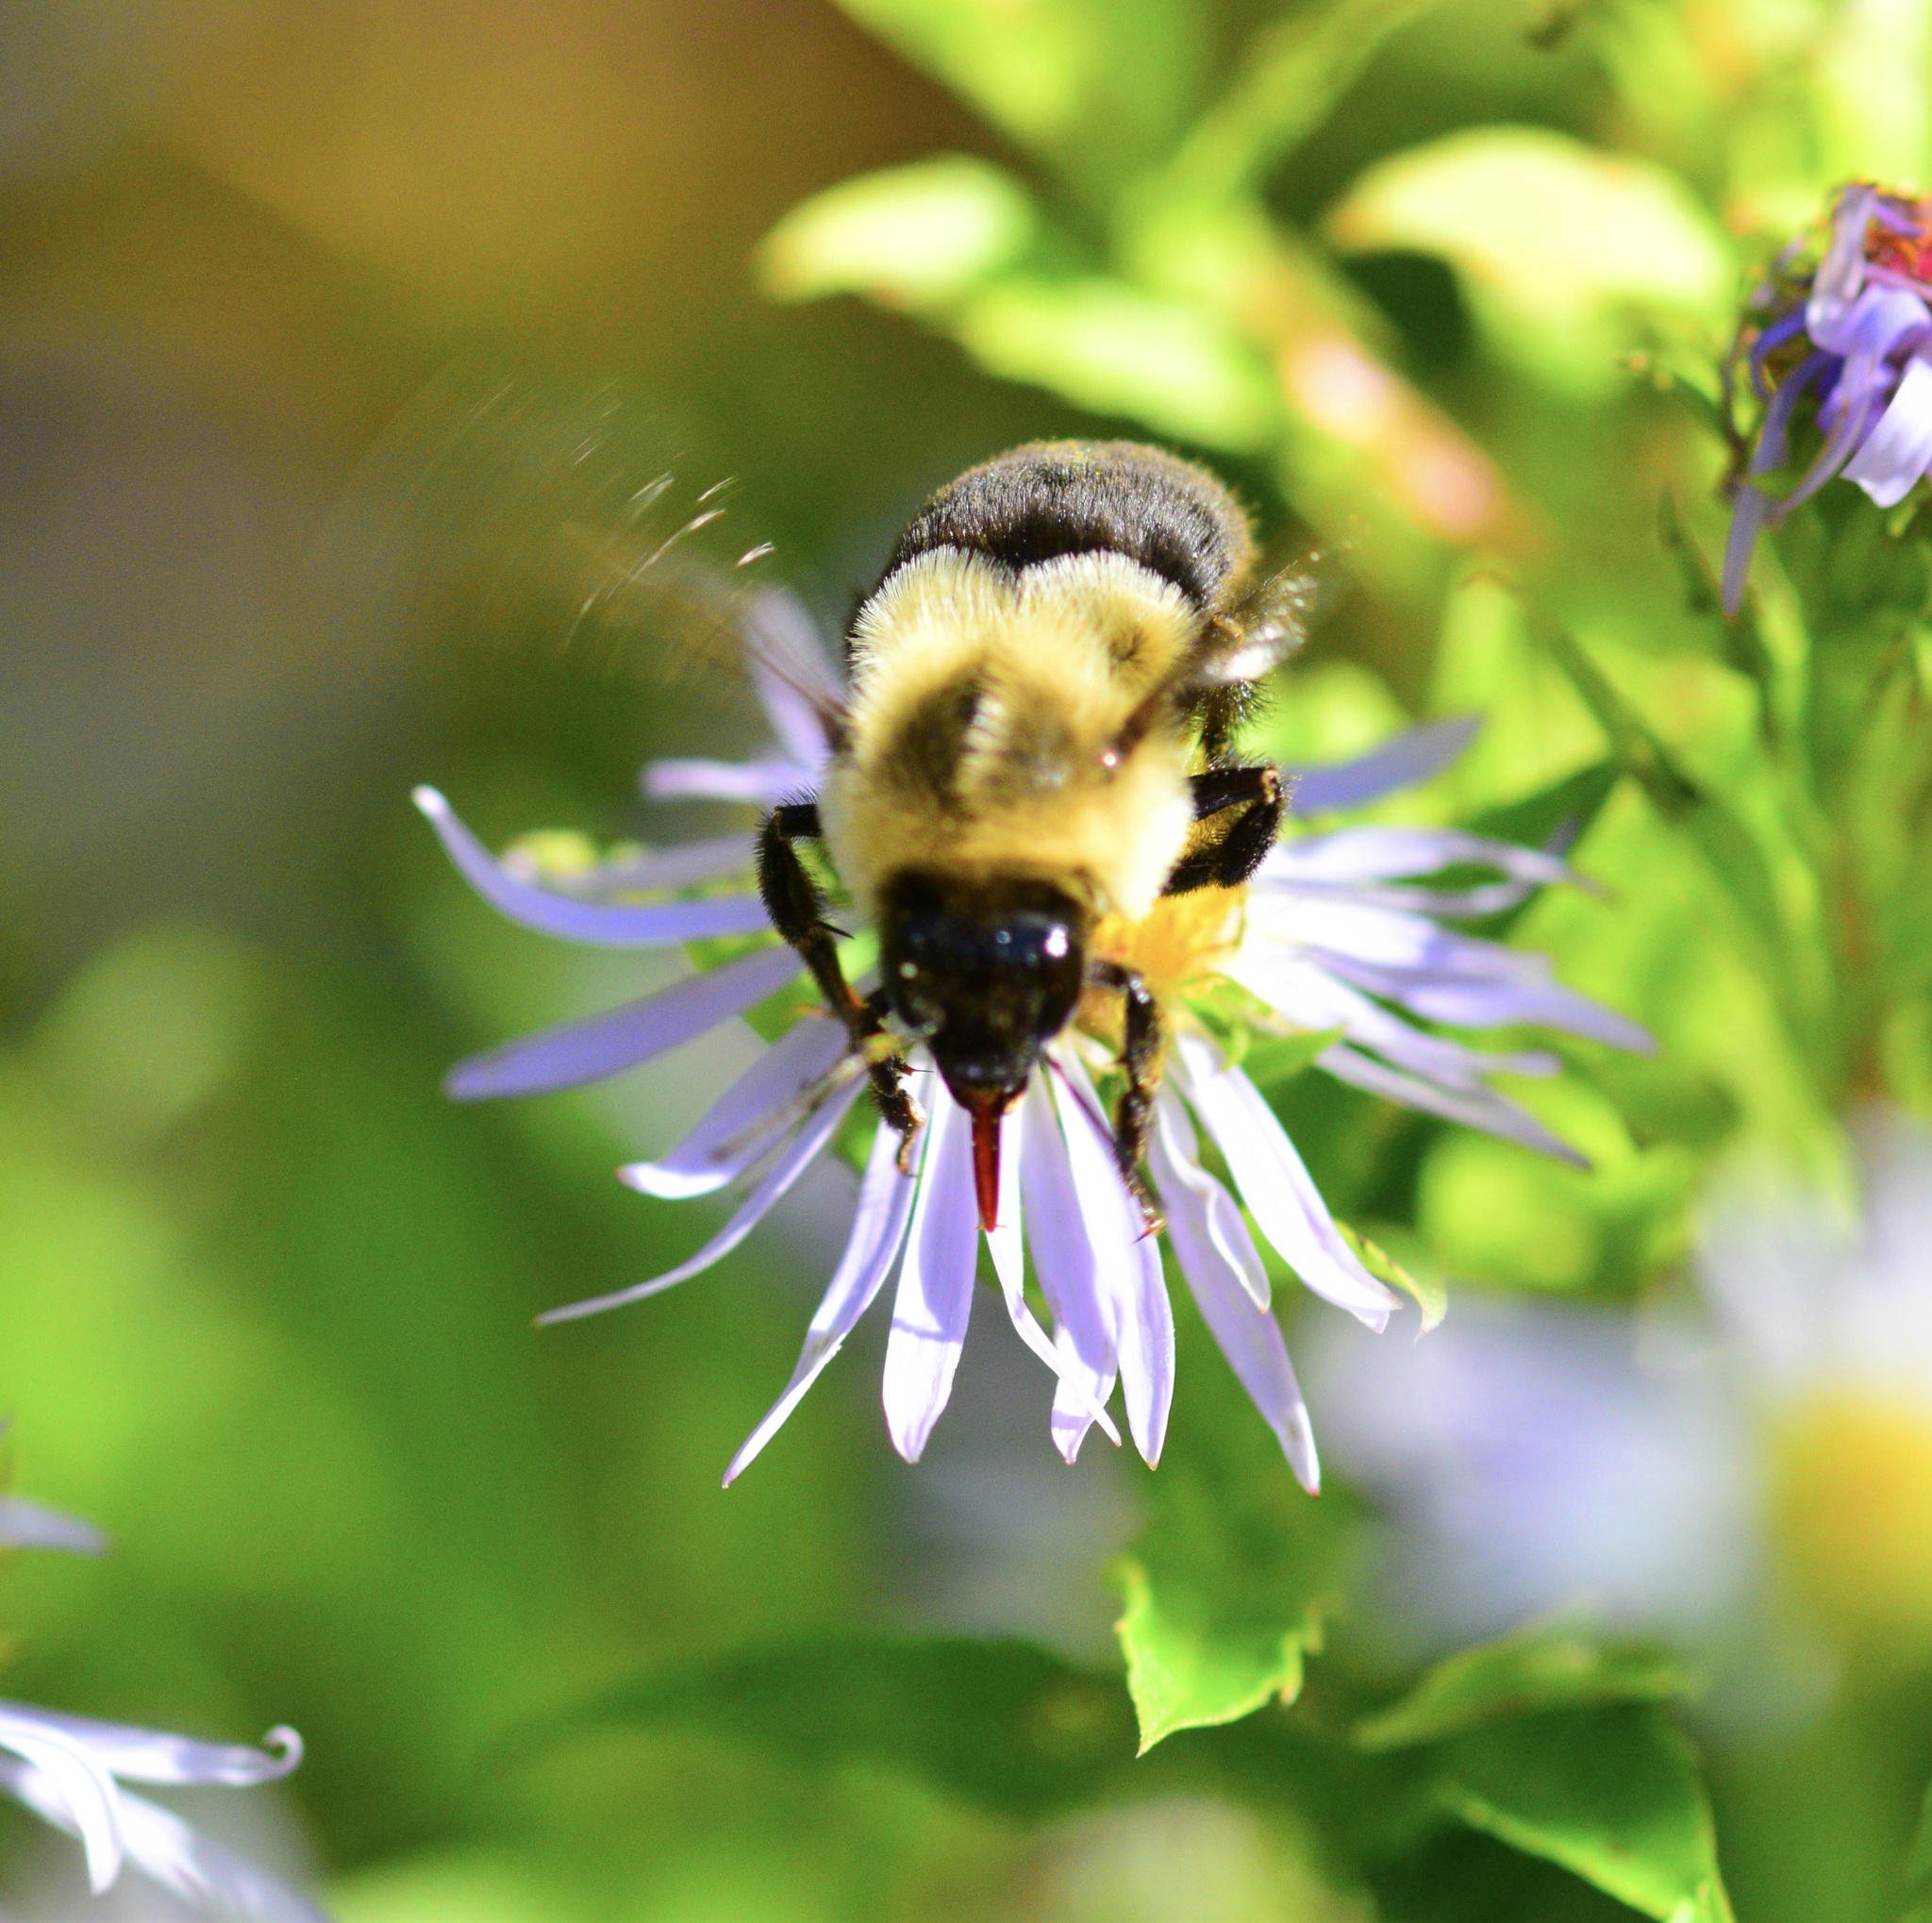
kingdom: Animalia
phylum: Arthropoda
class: Insecta
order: Hymenoptera
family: Apidae
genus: Bombus
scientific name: Bombus impatiens
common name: Common eastern bumble bee
